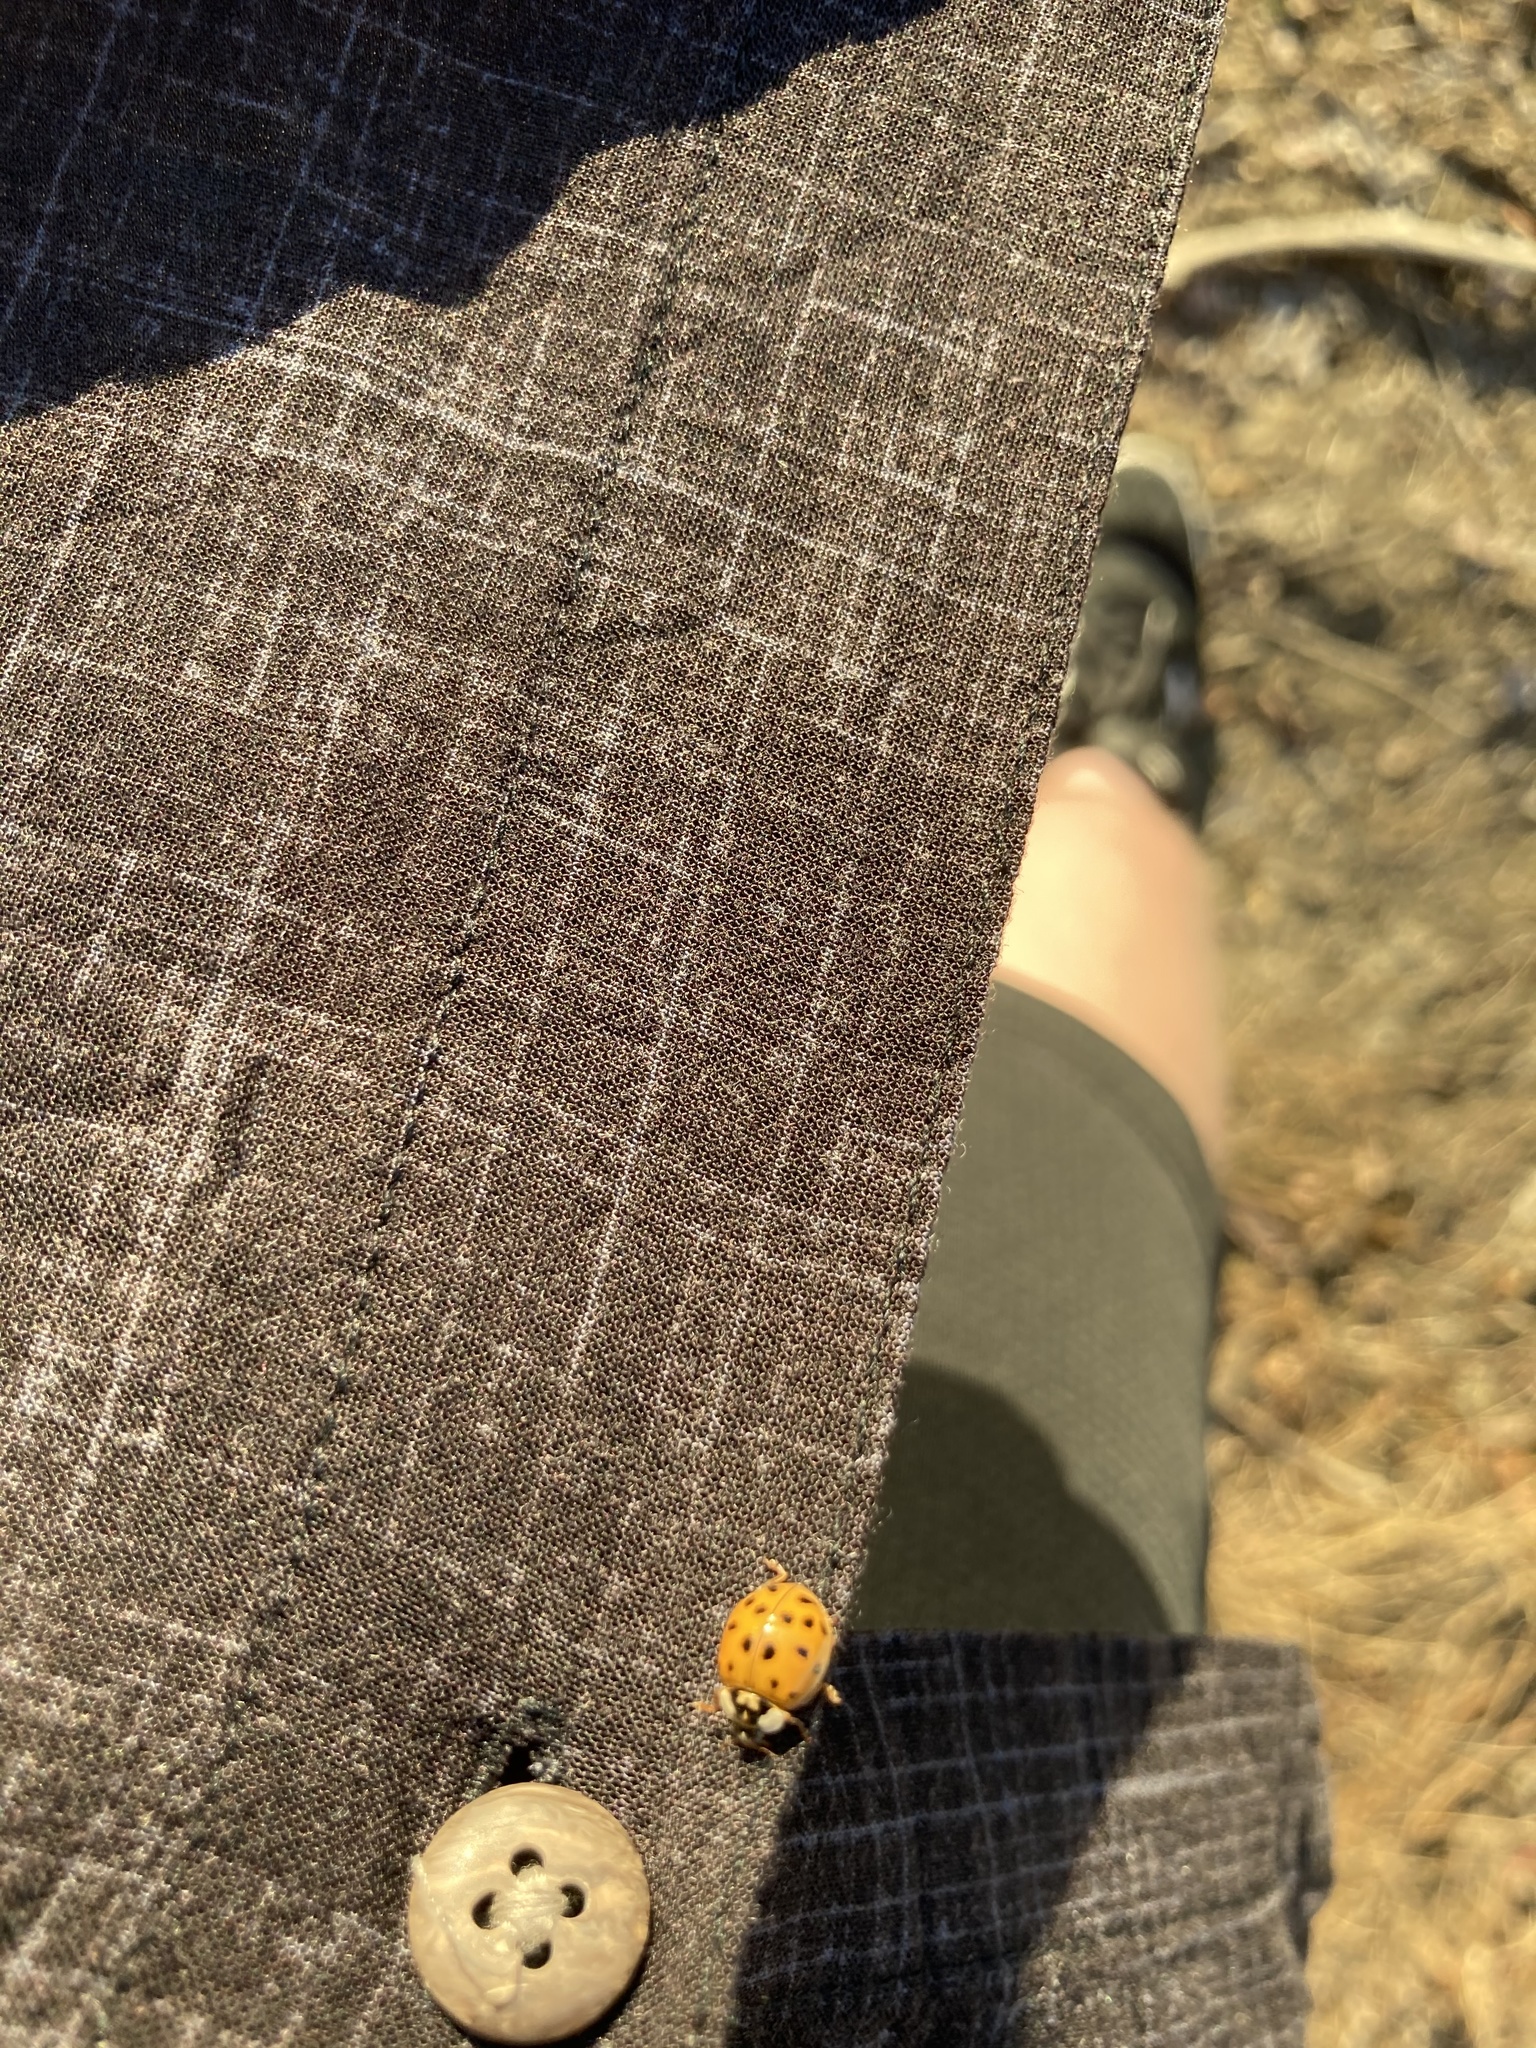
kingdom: Animalia
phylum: Arthropoda
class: Insecta
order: Coleoptera
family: Coccinellidae
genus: Harmonia
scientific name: Harmonia axyridis
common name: Harlequin ladybird
